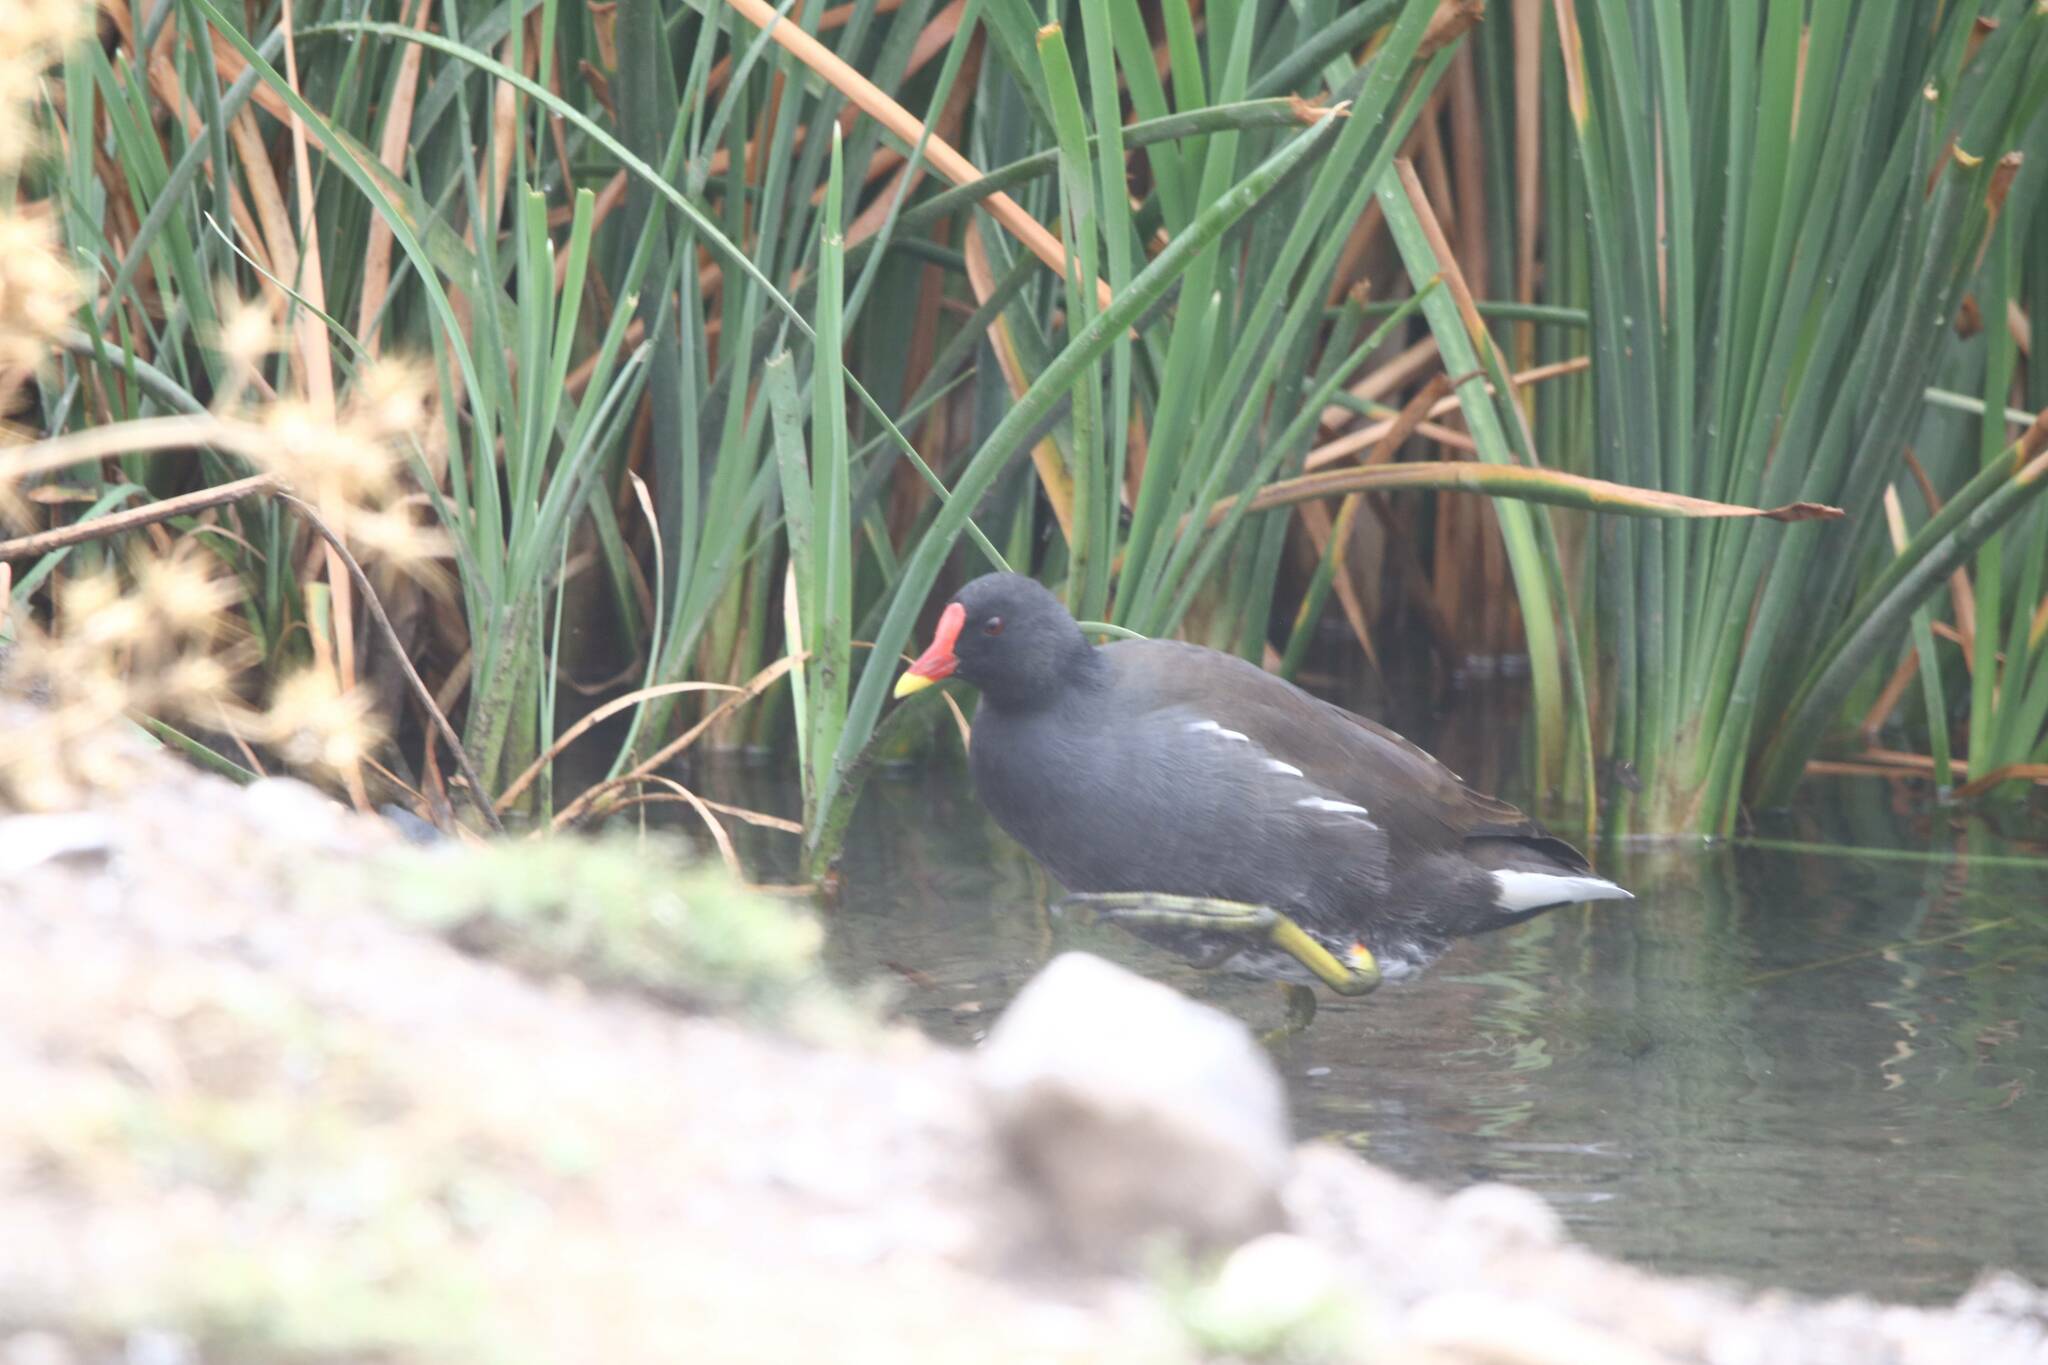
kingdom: Animalia
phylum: Chordata
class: Aves
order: Gruiformes
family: Rallidae
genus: Gallinula
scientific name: Gallinula chloropus
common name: Common moorhen
